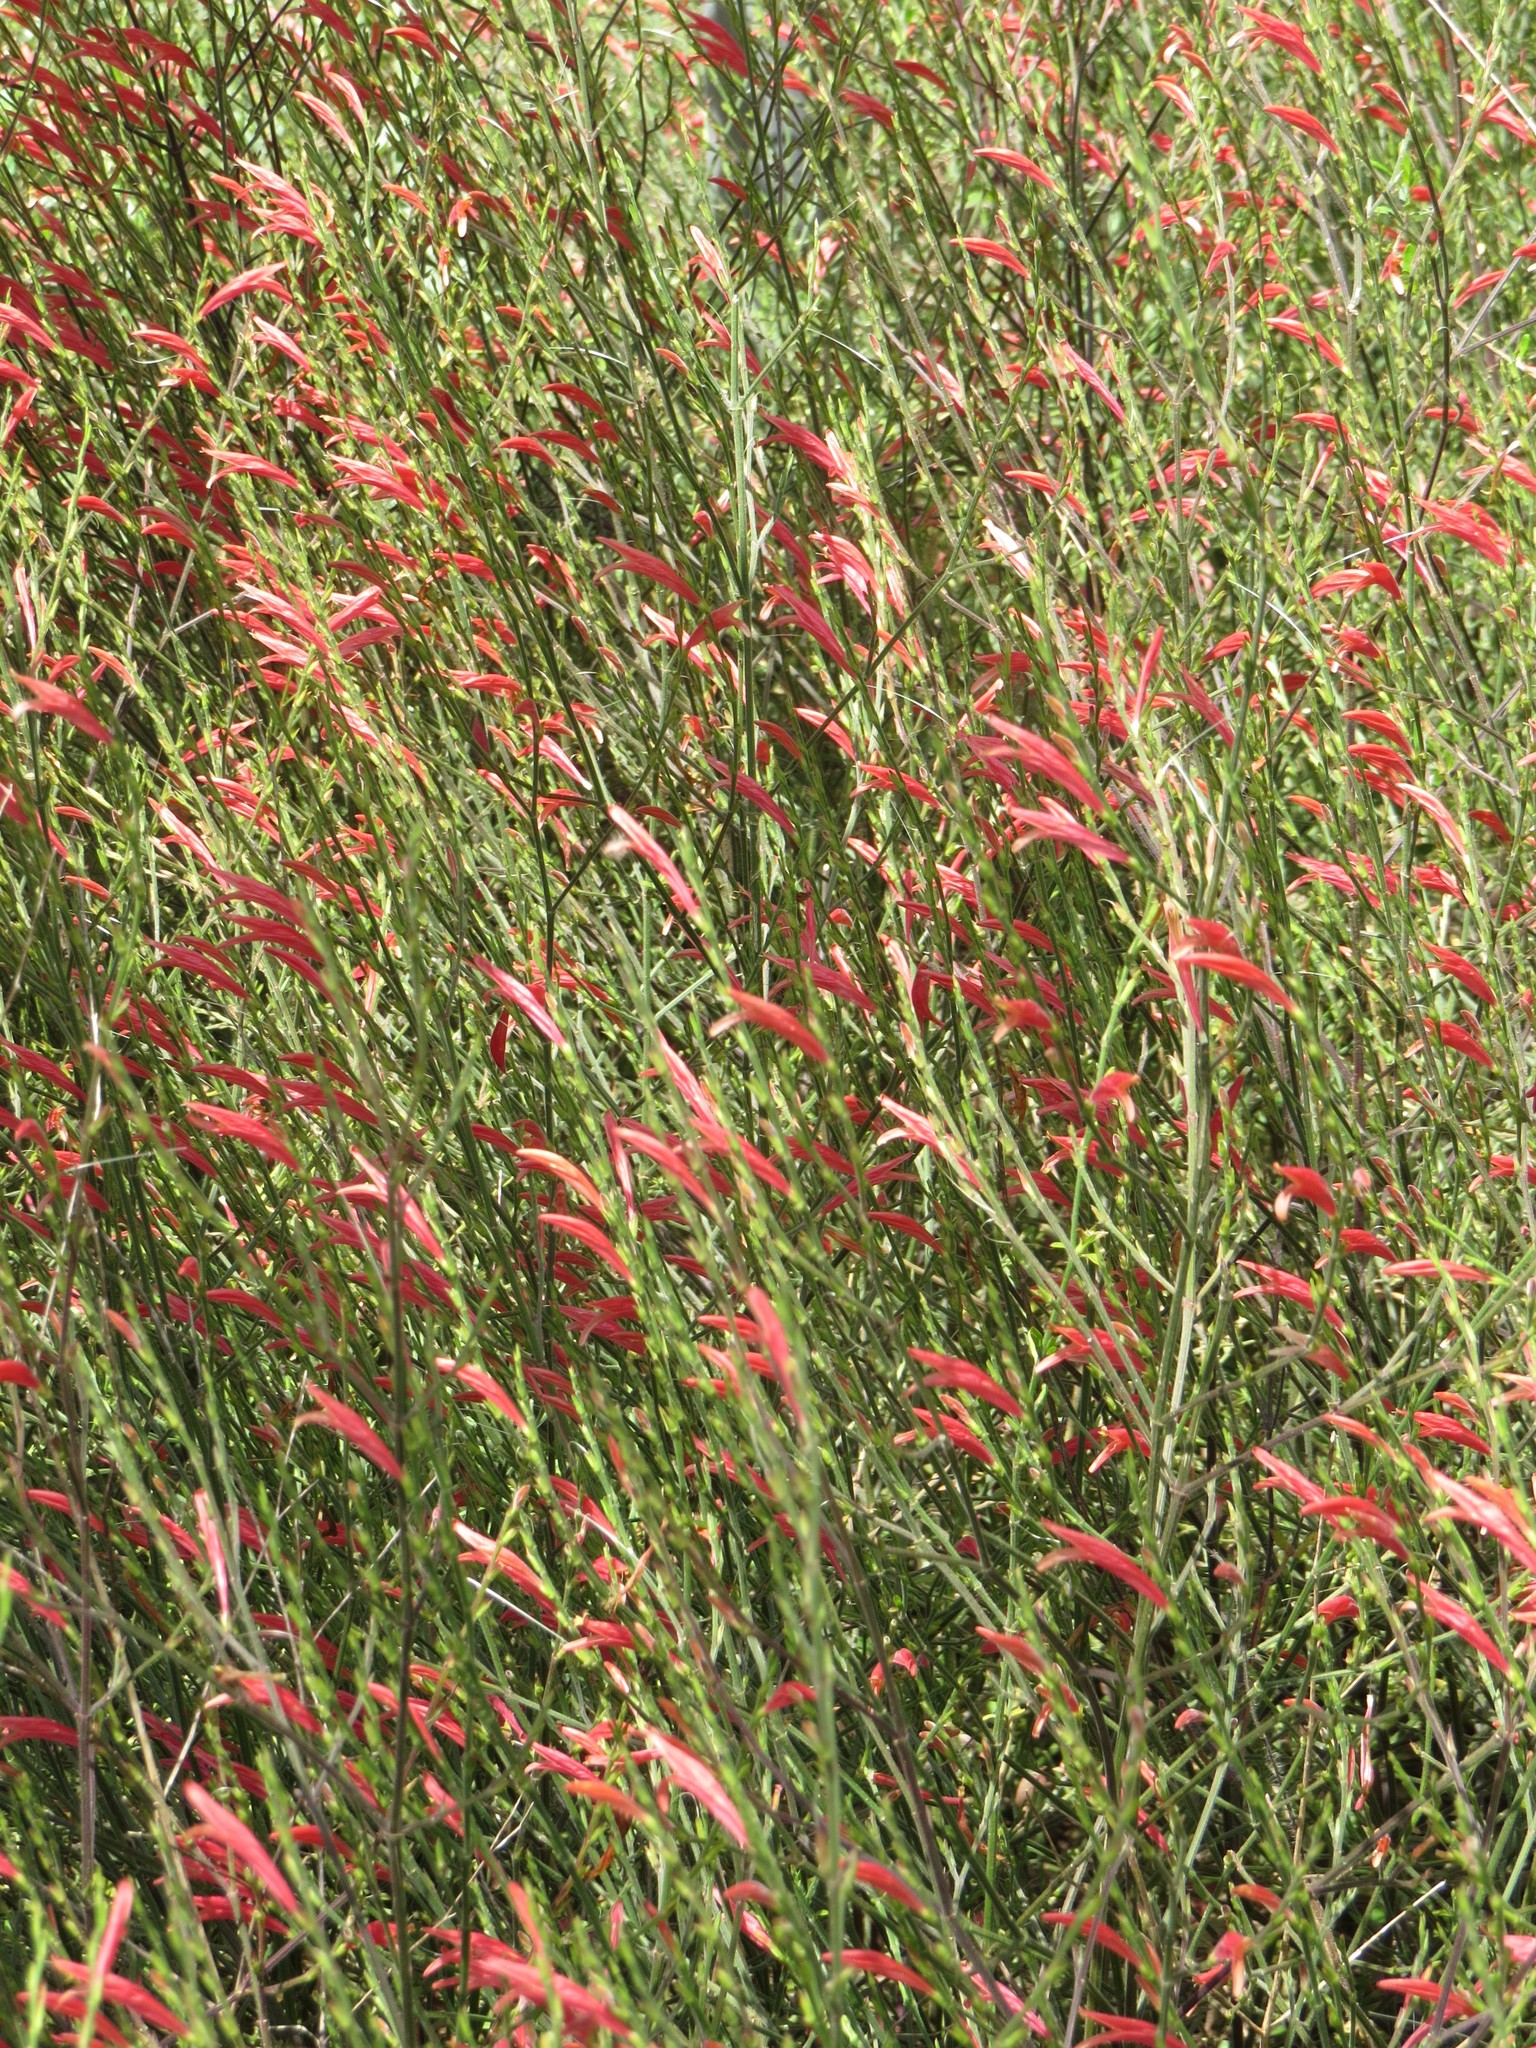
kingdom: Plantae
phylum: Tracheophyta
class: Magnoliopsida
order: Lamiales
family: Acanthaceae
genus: Dicliptera
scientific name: Dicliptera sexangularis
